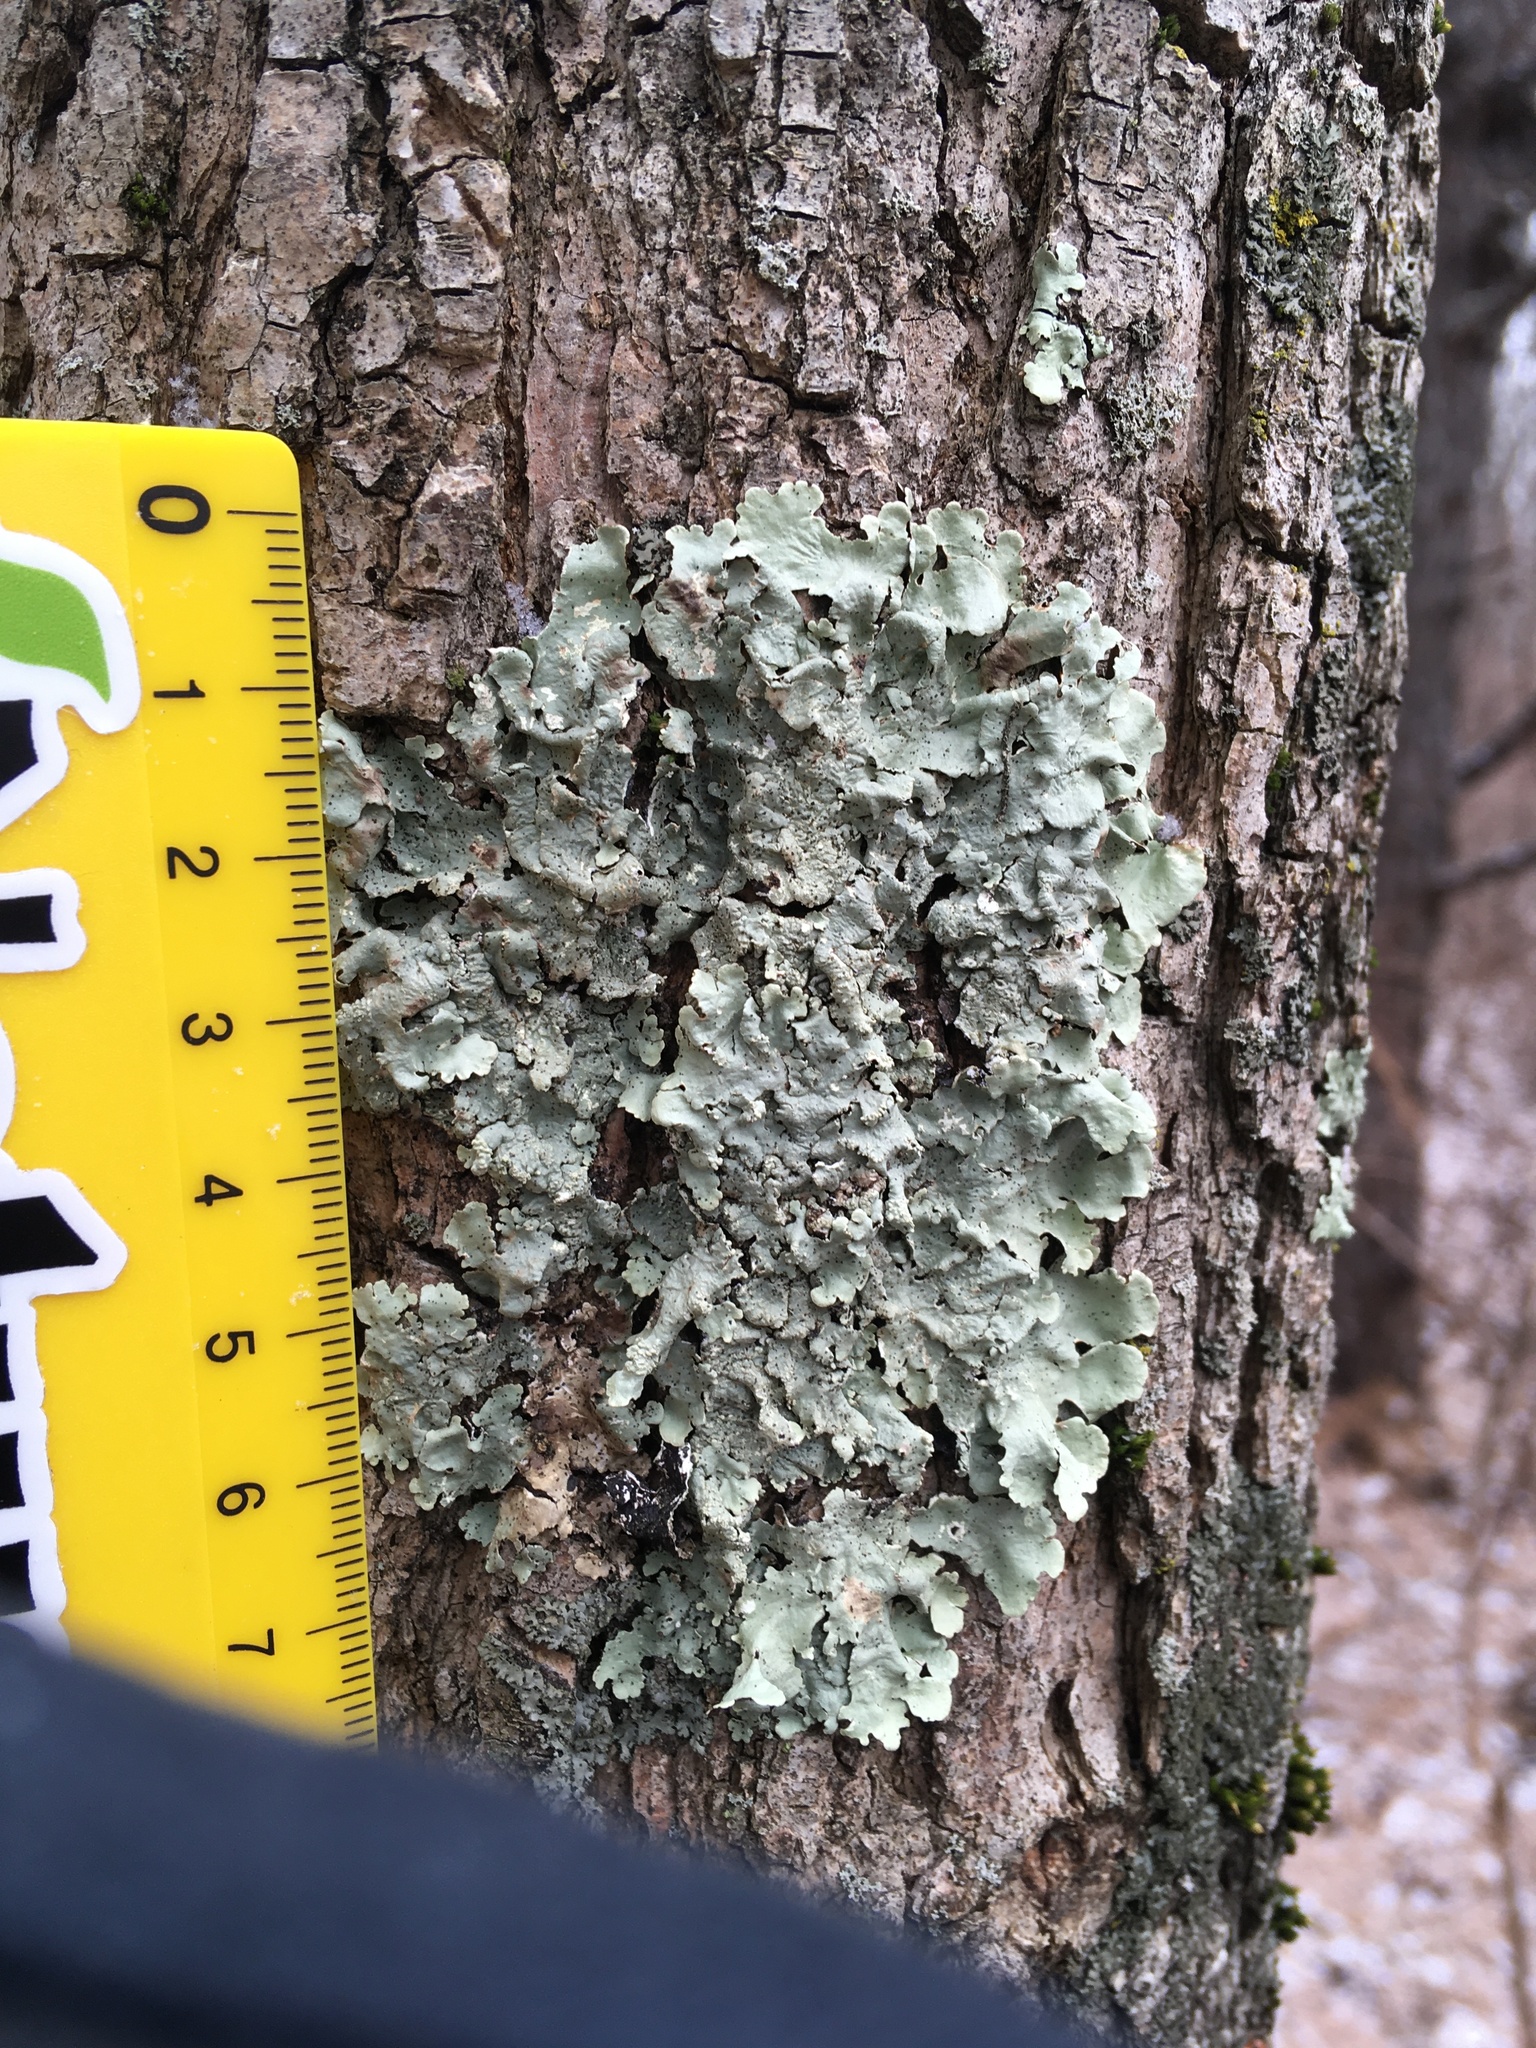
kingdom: Fungi
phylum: Ascomycota
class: Lecanoromycetes
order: Lecanorales
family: Parmeliaceae
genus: Flavoparmelia
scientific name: Flavoparmelia caperata
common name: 40-mile per hour lichen
